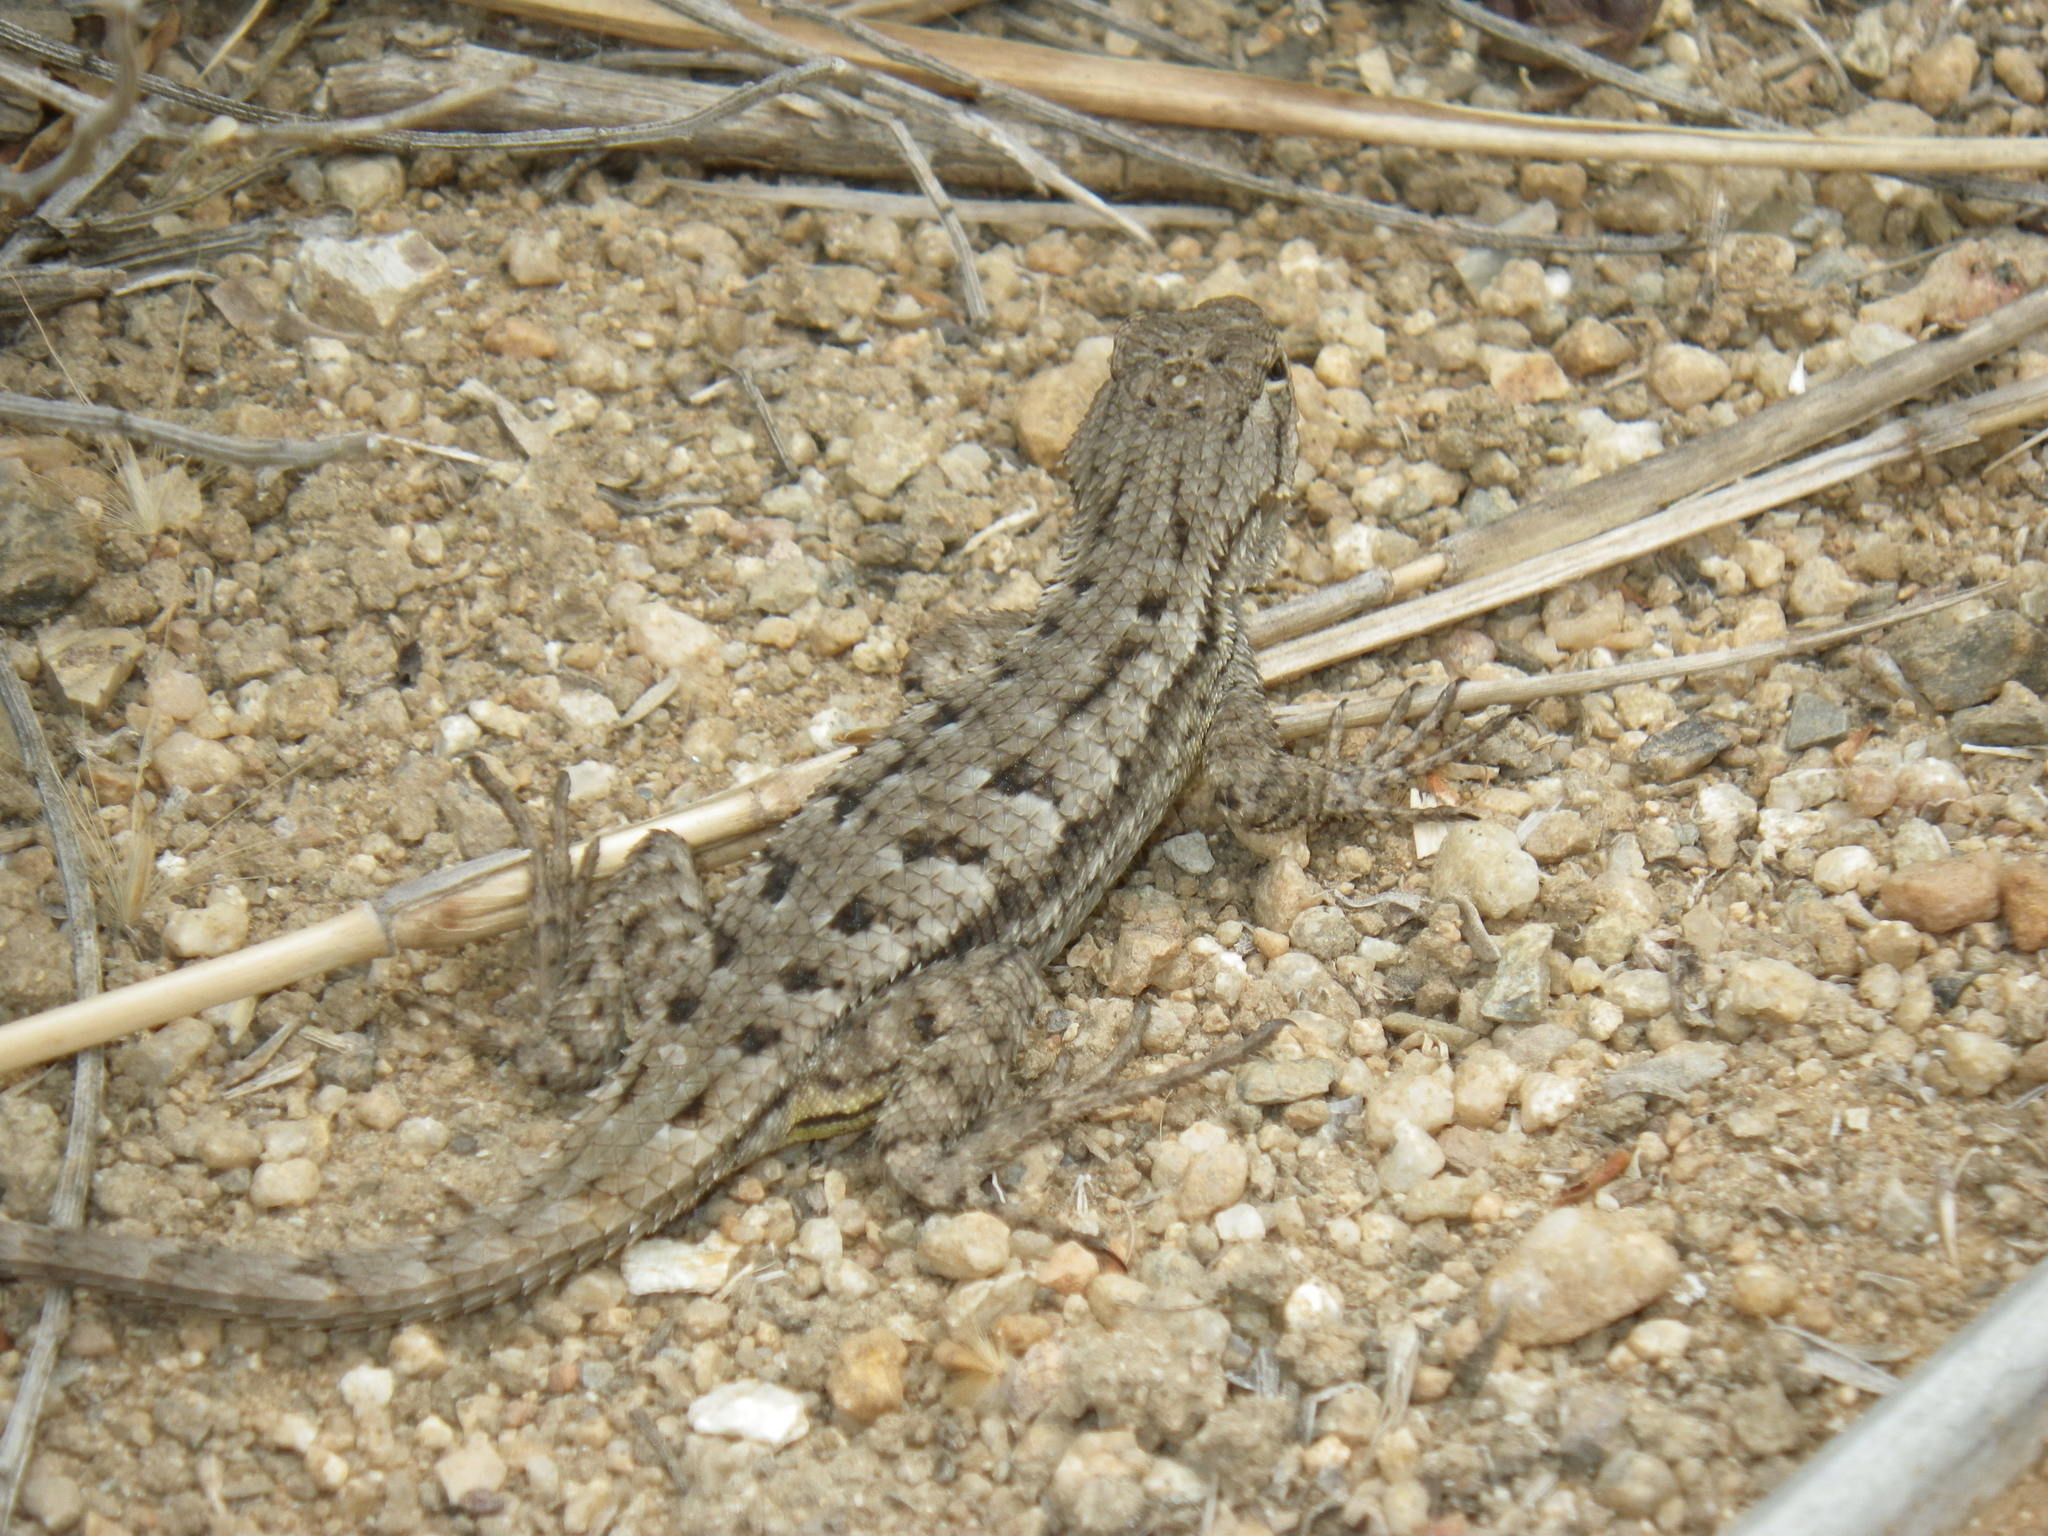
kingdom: Animalia
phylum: Chordata
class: Squamata
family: Phrynosomatidae
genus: Sceloporus
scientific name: Sceloporus occidentalis
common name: Western fence lizard
